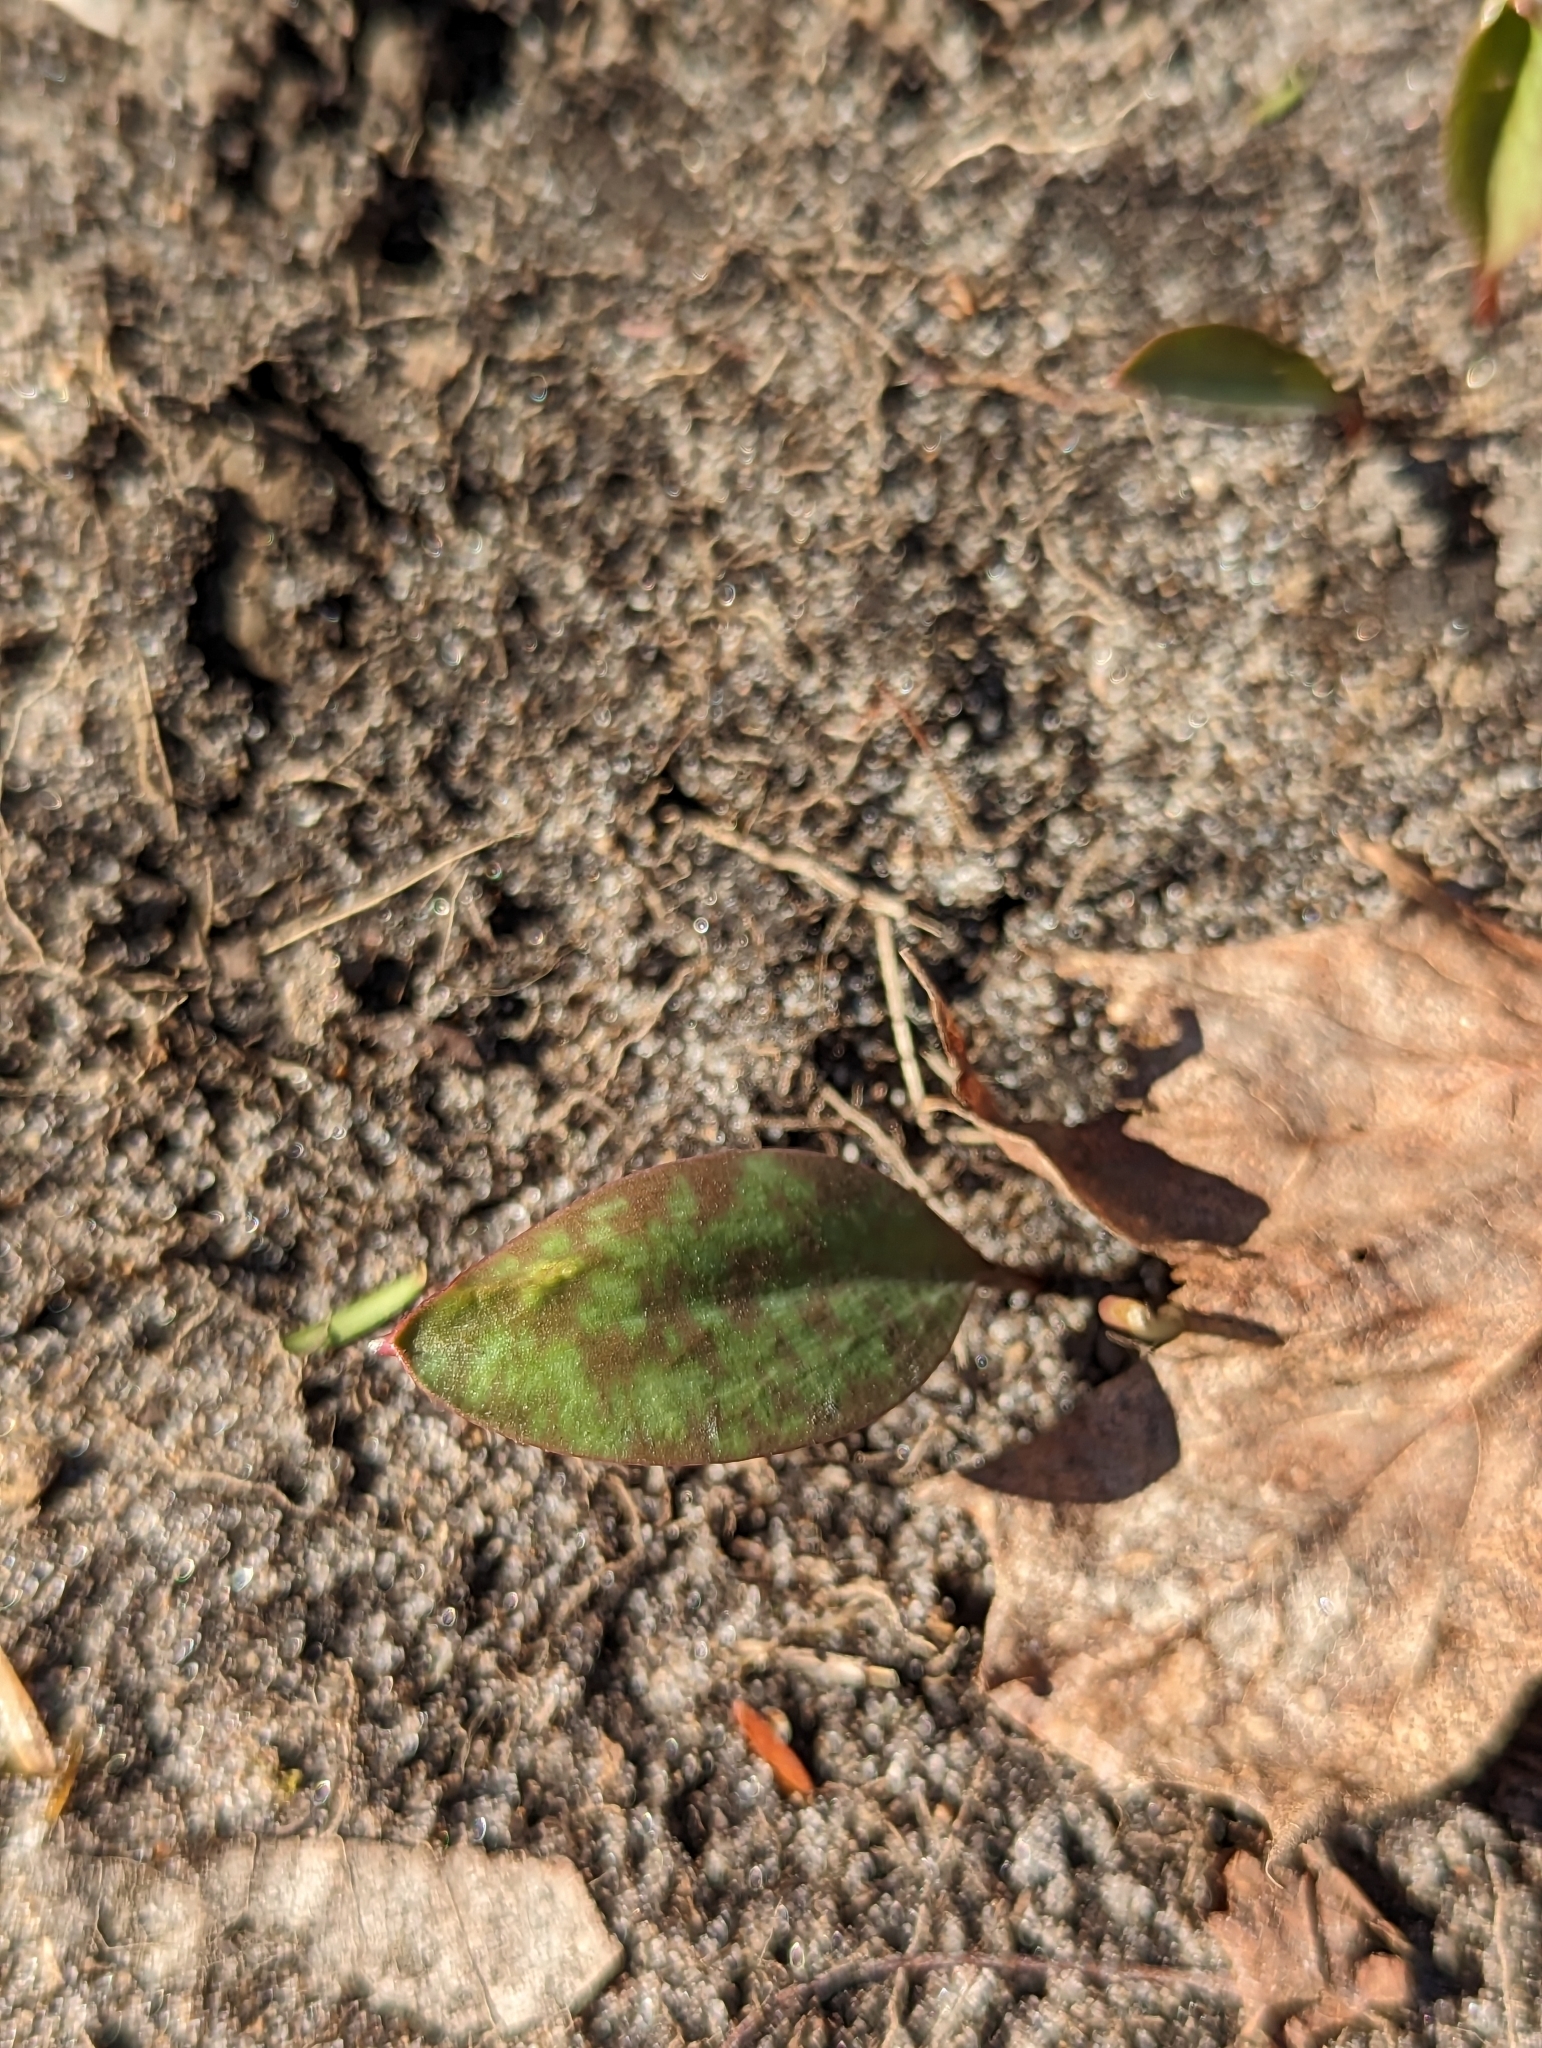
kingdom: Plantae
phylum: Tracheophyta
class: Liliopsida
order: Liliales
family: Liliaceae
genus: Erythronium
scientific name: Erythronium americanum
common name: Yellow adder's-tongue
